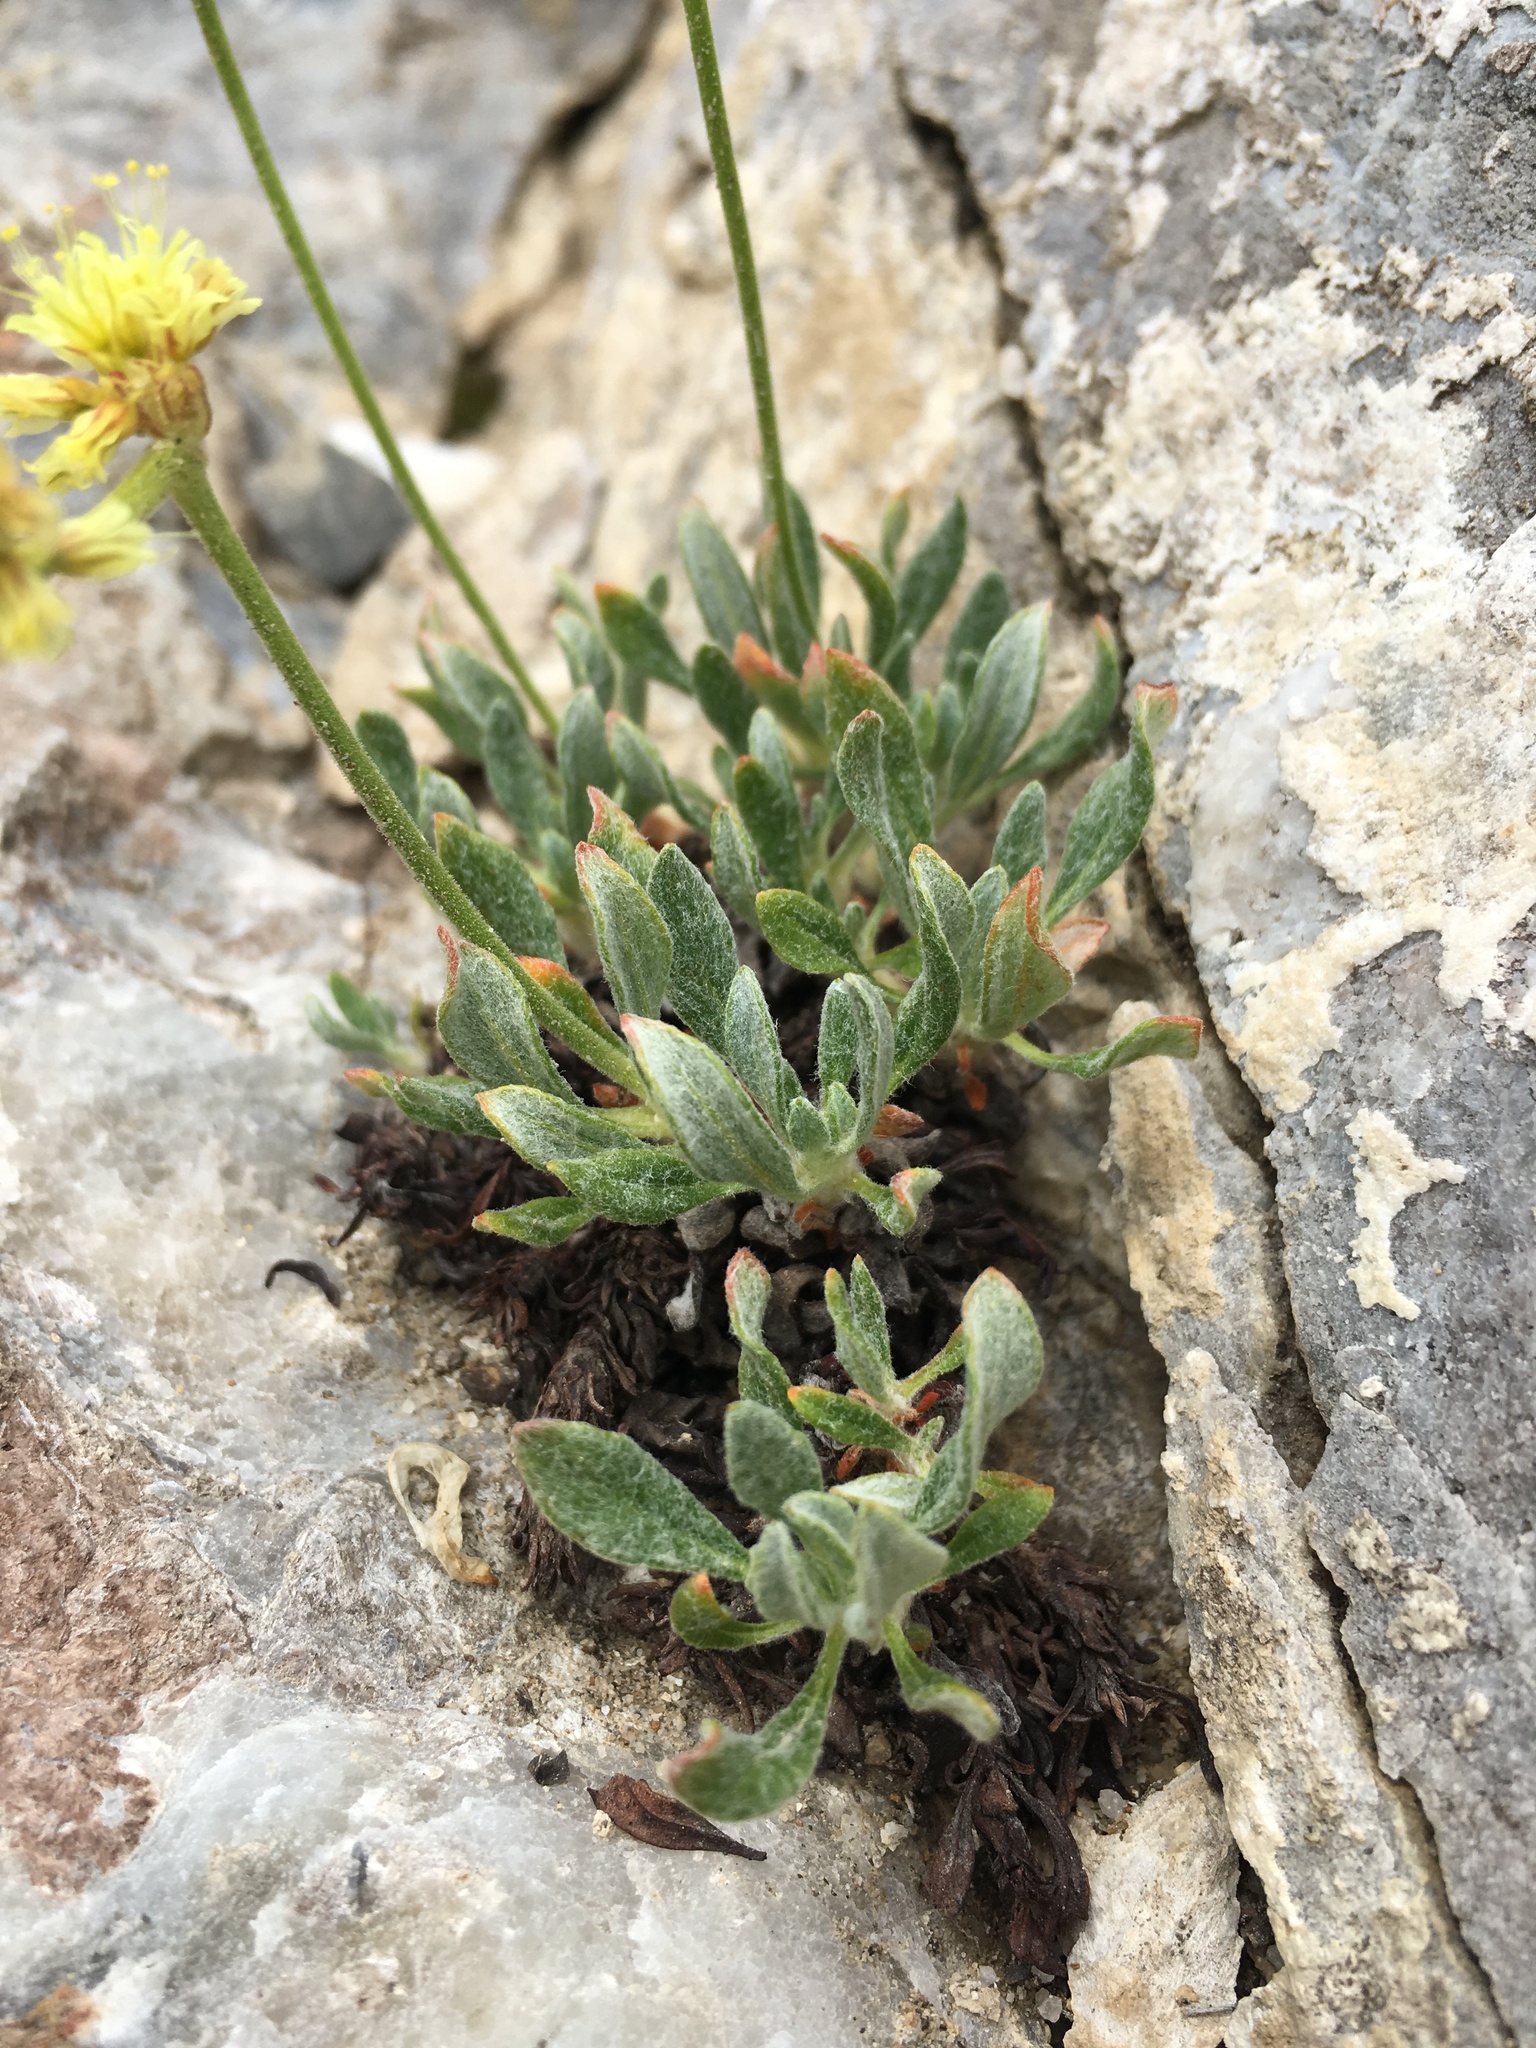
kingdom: Plantae
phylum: Tracheophyta
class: Magnoliopsida
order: Caryophyllales
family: Polygonaceae
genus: Eriogonum
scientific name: Eriogonum rosense
